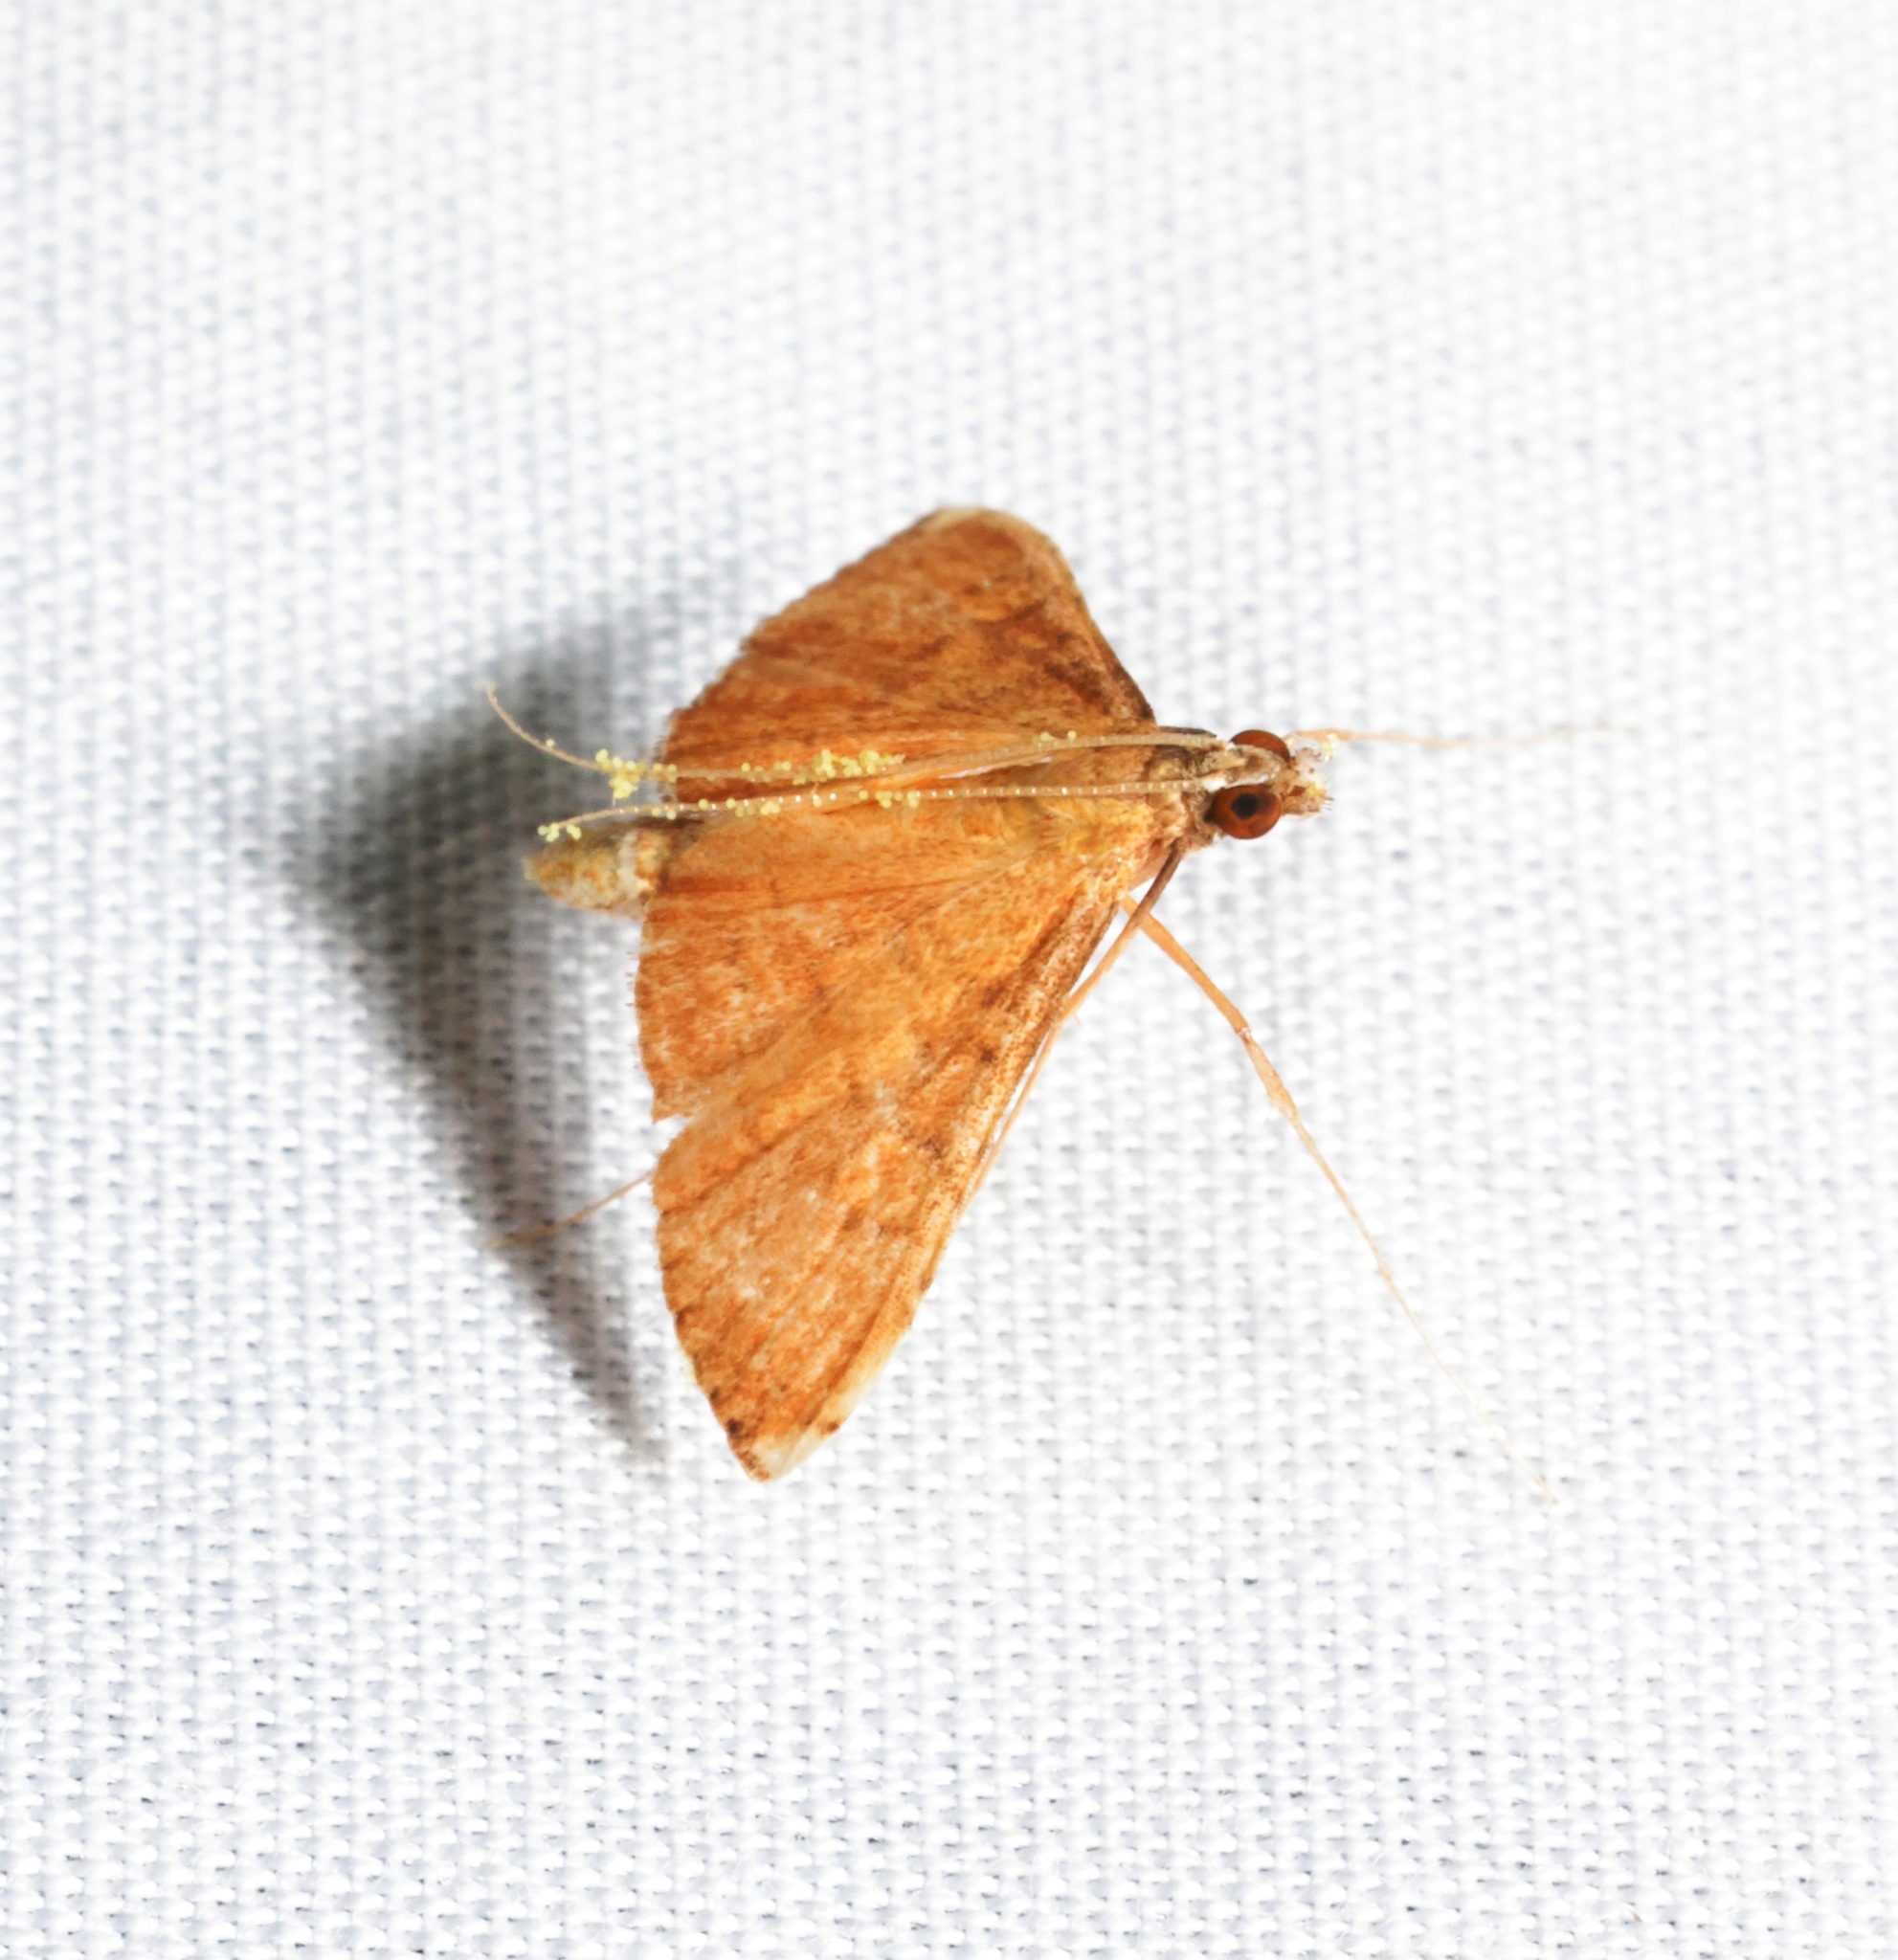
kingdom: Animalia
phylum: Arthropoda
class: Insecta
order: Lepidoptera
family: Crambidae
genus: Mabra
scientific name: Mabra nigriscripta
